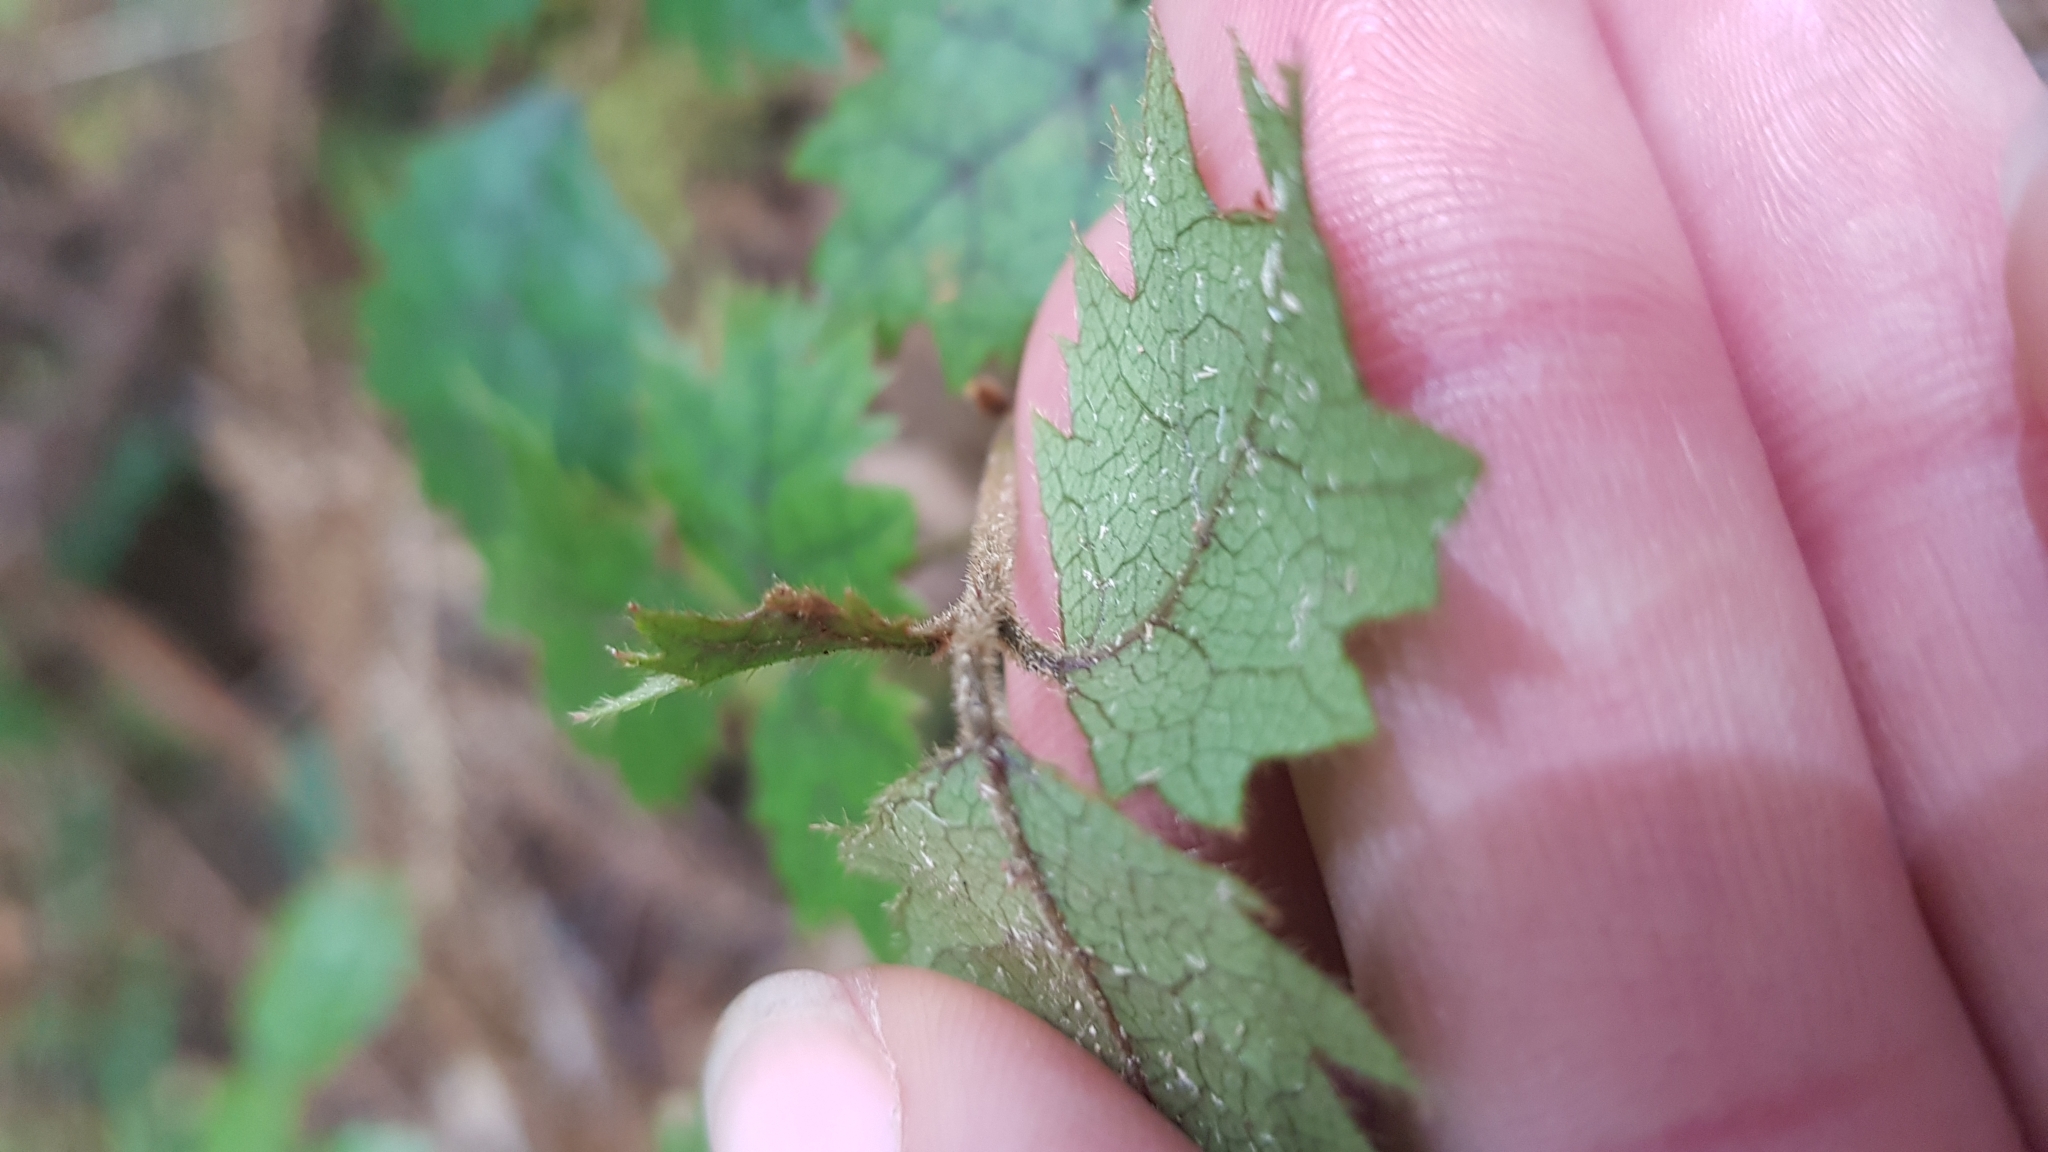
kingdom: Plantae
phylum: Tracheophyta
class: Magnoliopsida
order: Rosales
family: Rosaceae
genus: Rubus
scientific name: Rubus australis
